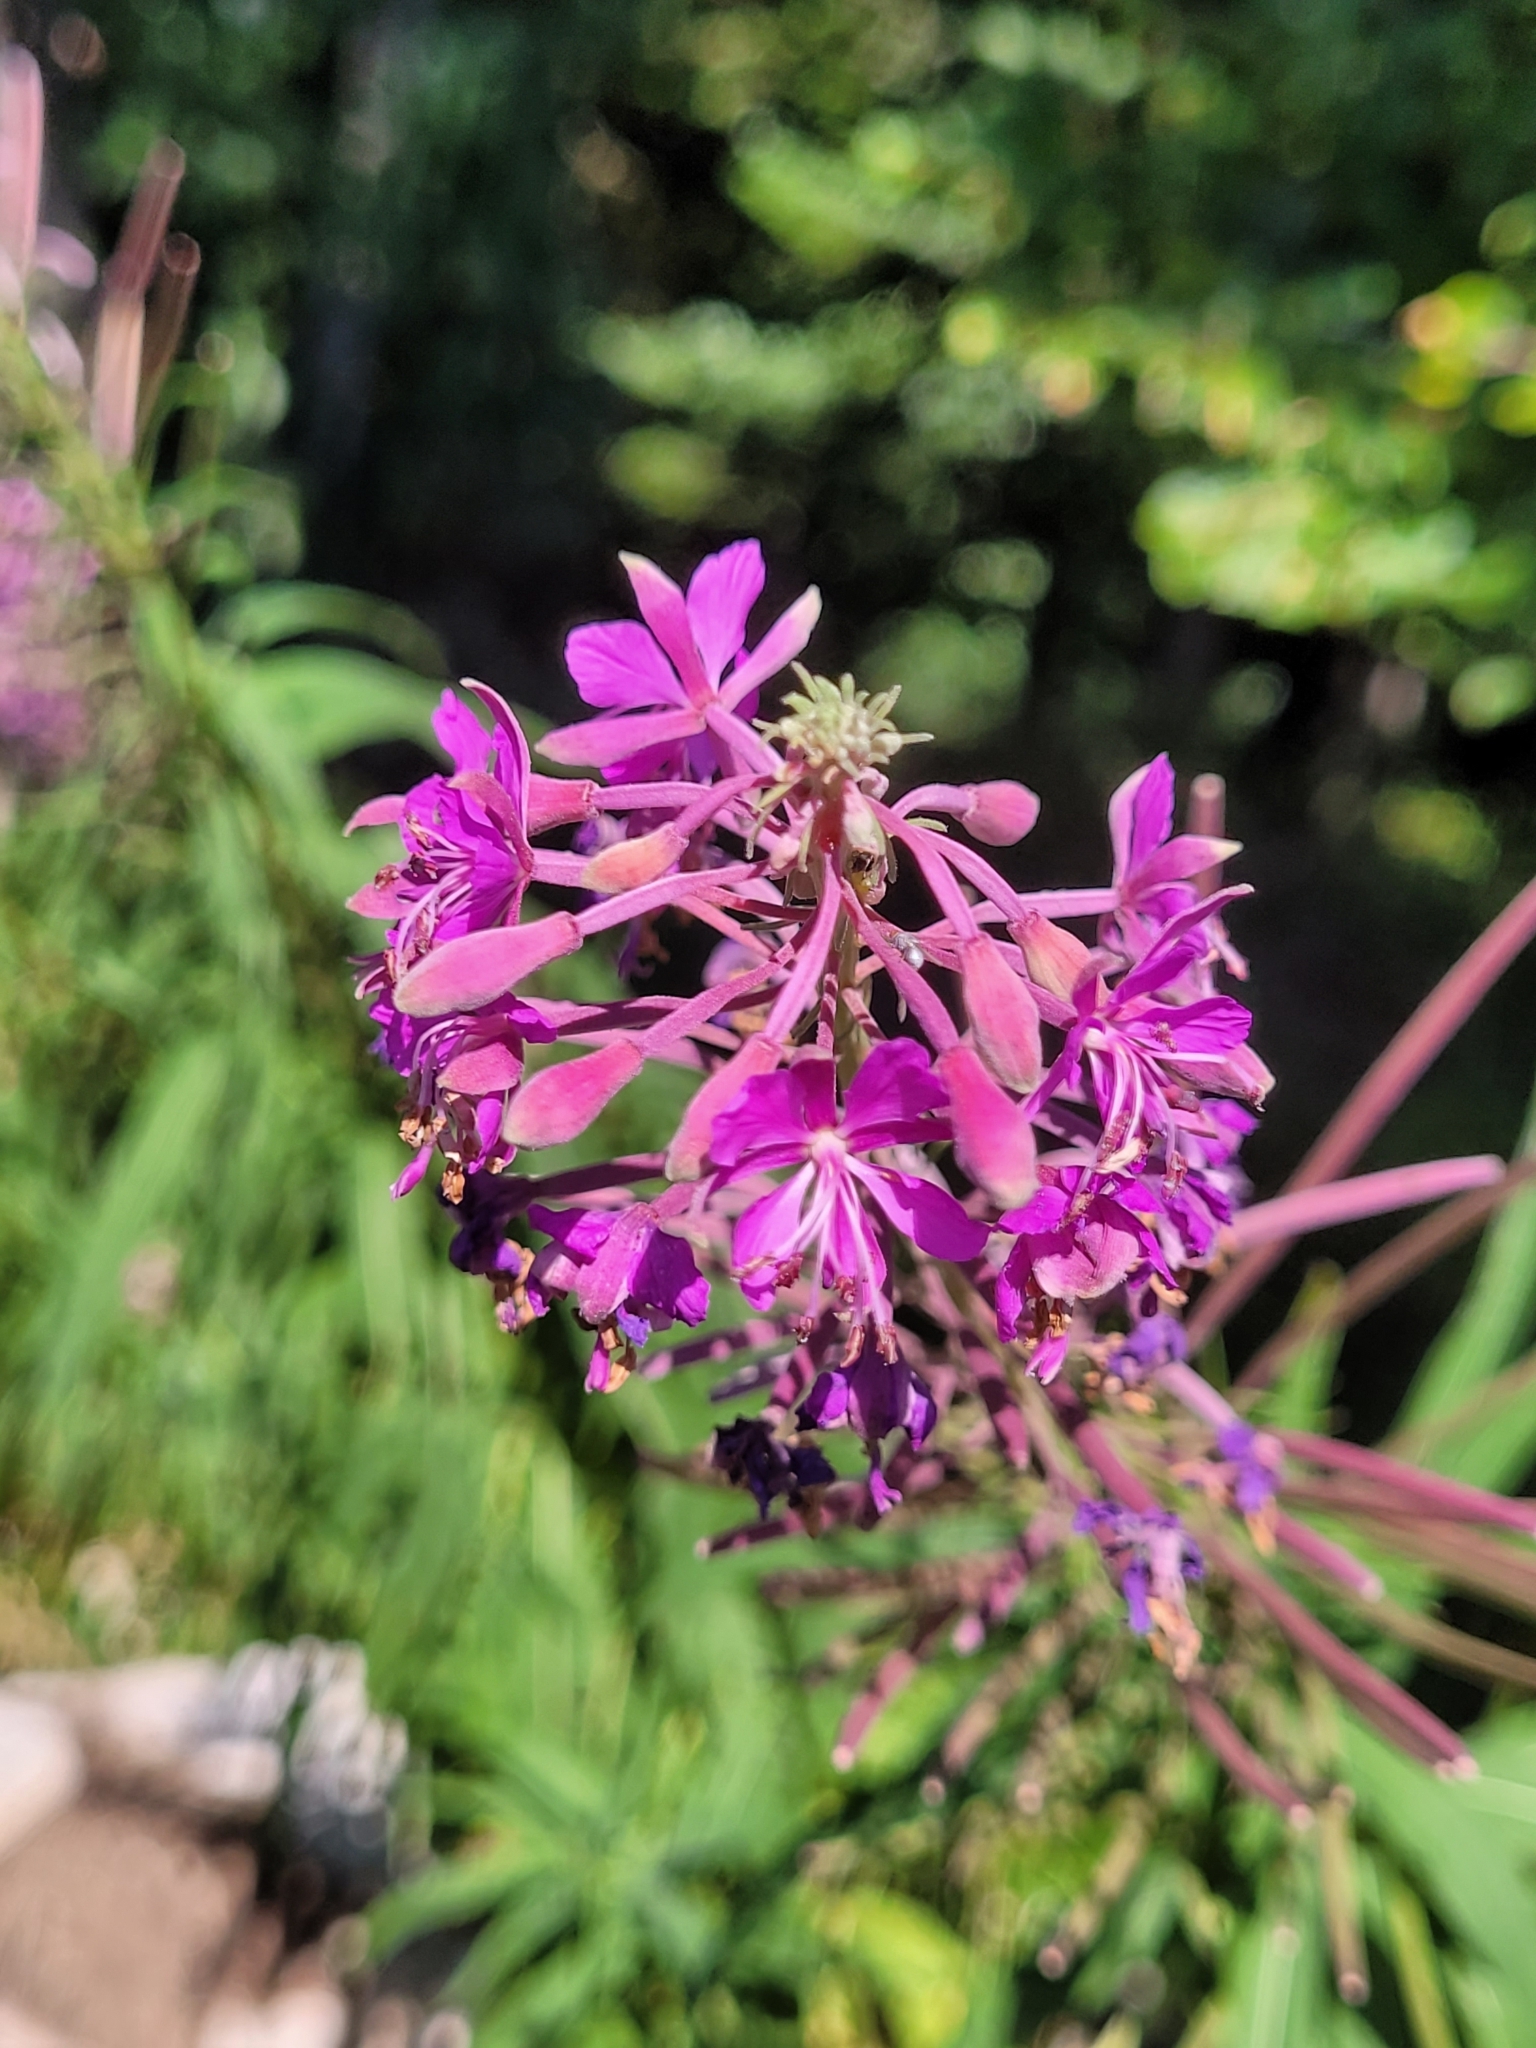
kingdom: Plantae
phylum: Tracheophyta
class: Magnoliopsida
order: Myrtales
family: Onagraceae
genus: Chamaenerion
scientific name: Chamaenerion angustifolium
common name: Fireweed
